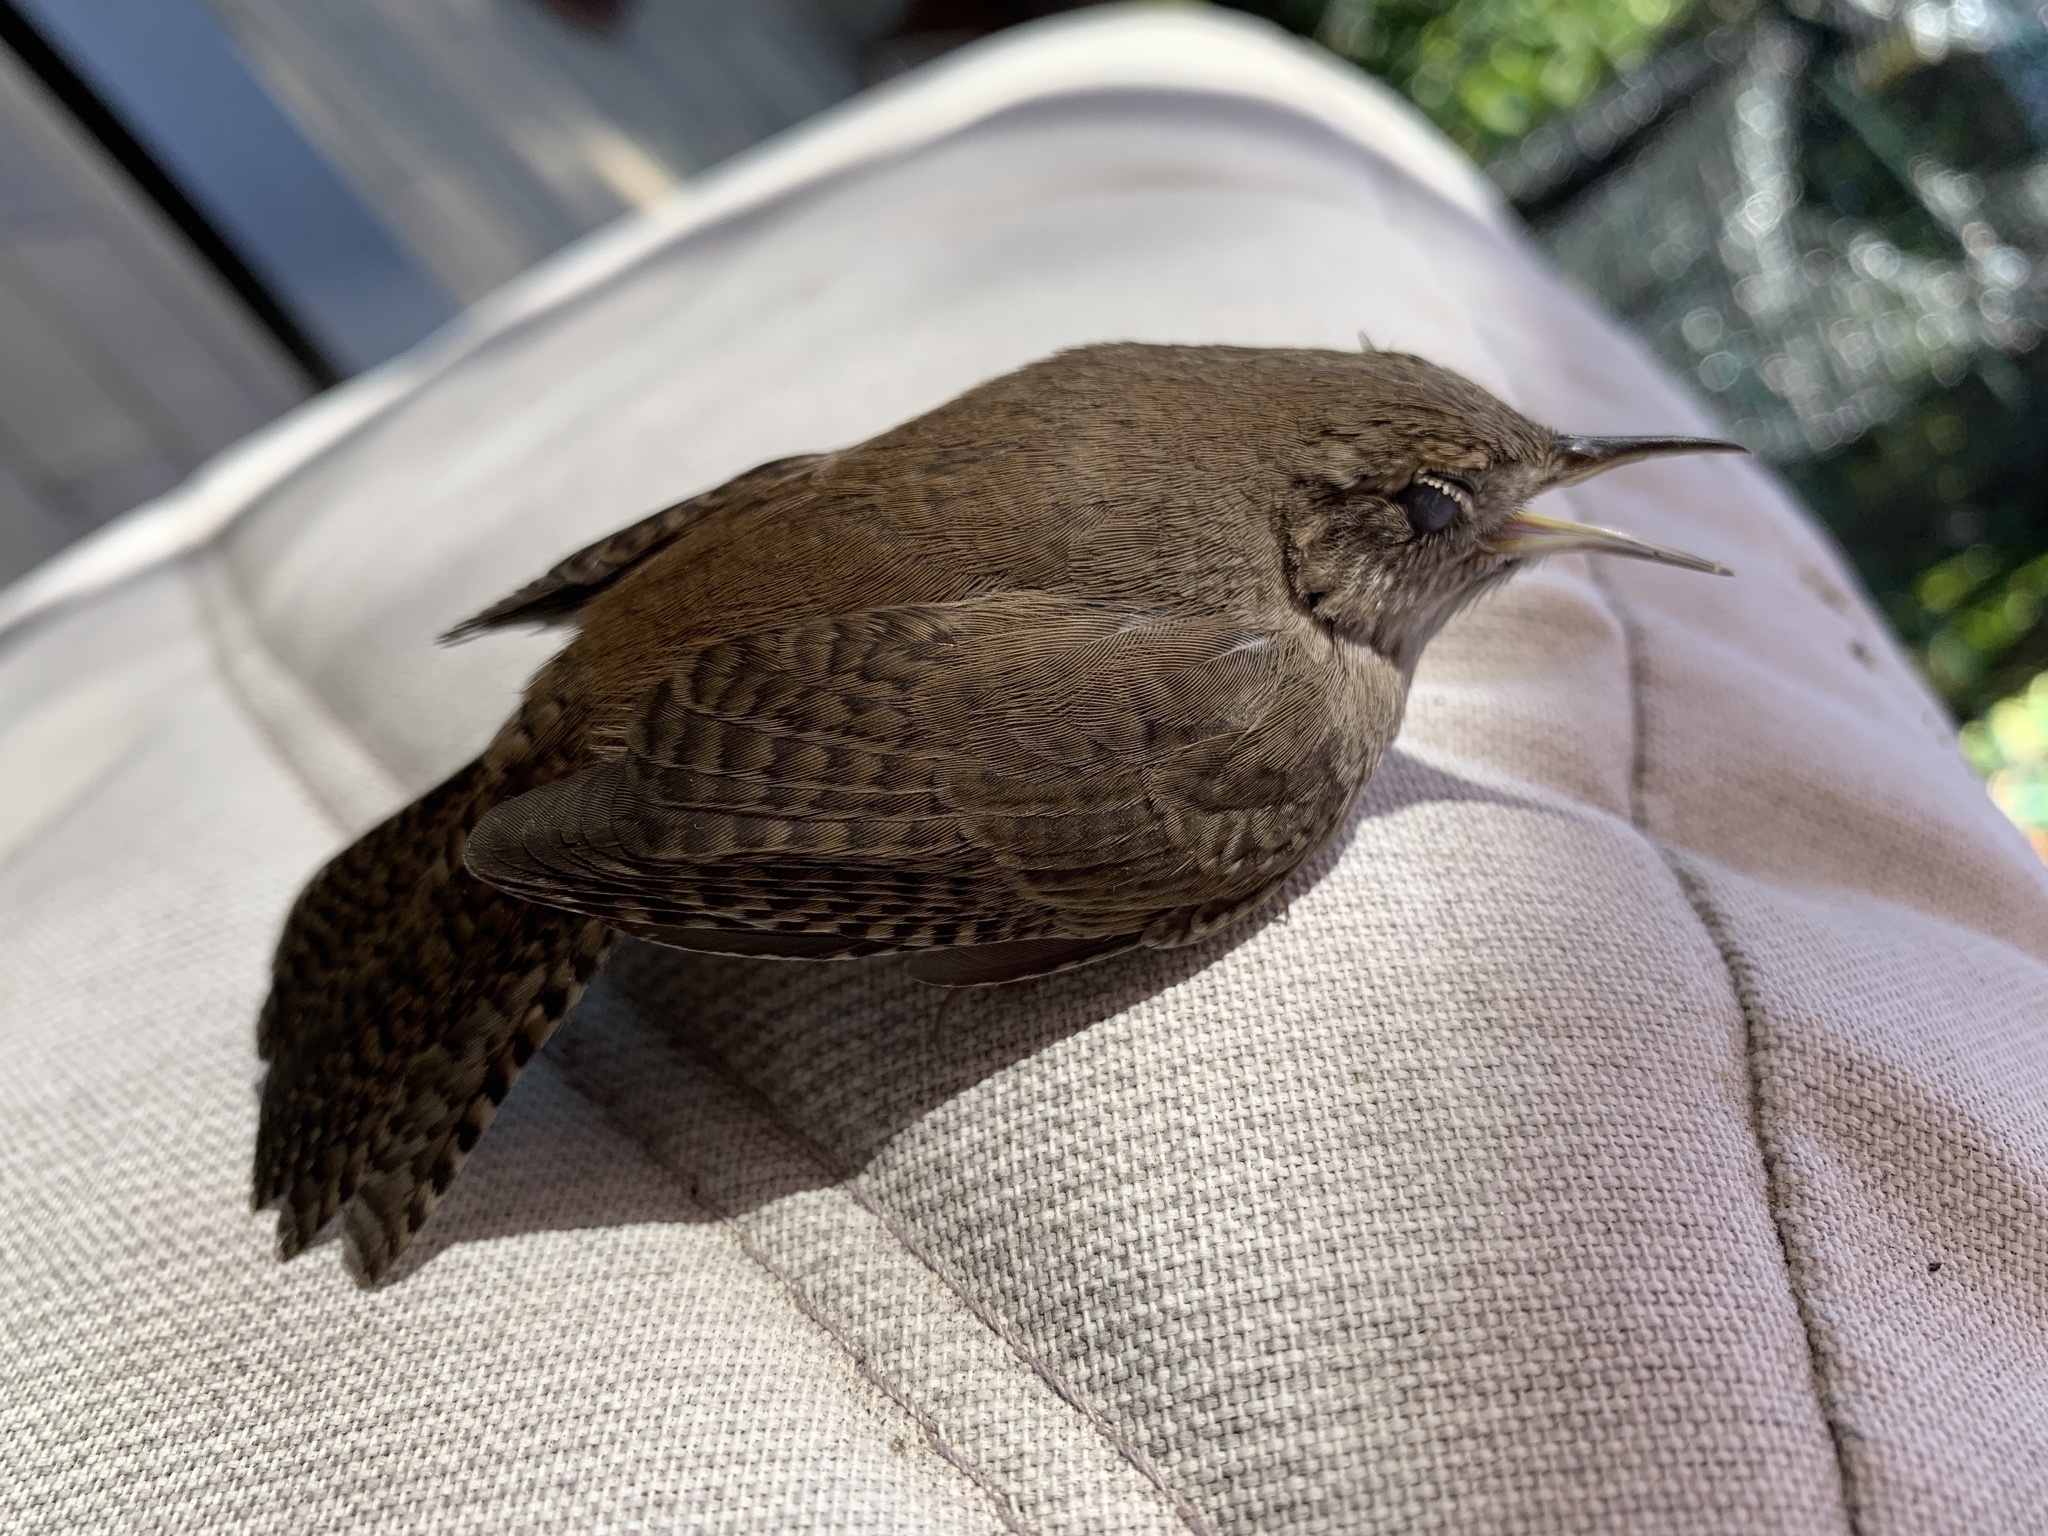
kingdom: Animalia
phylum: Chordata
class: Aves
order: Passeriformes
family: Troglodytidae
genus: Troglodytes
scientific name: Troglodytes aedon
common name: House wren
